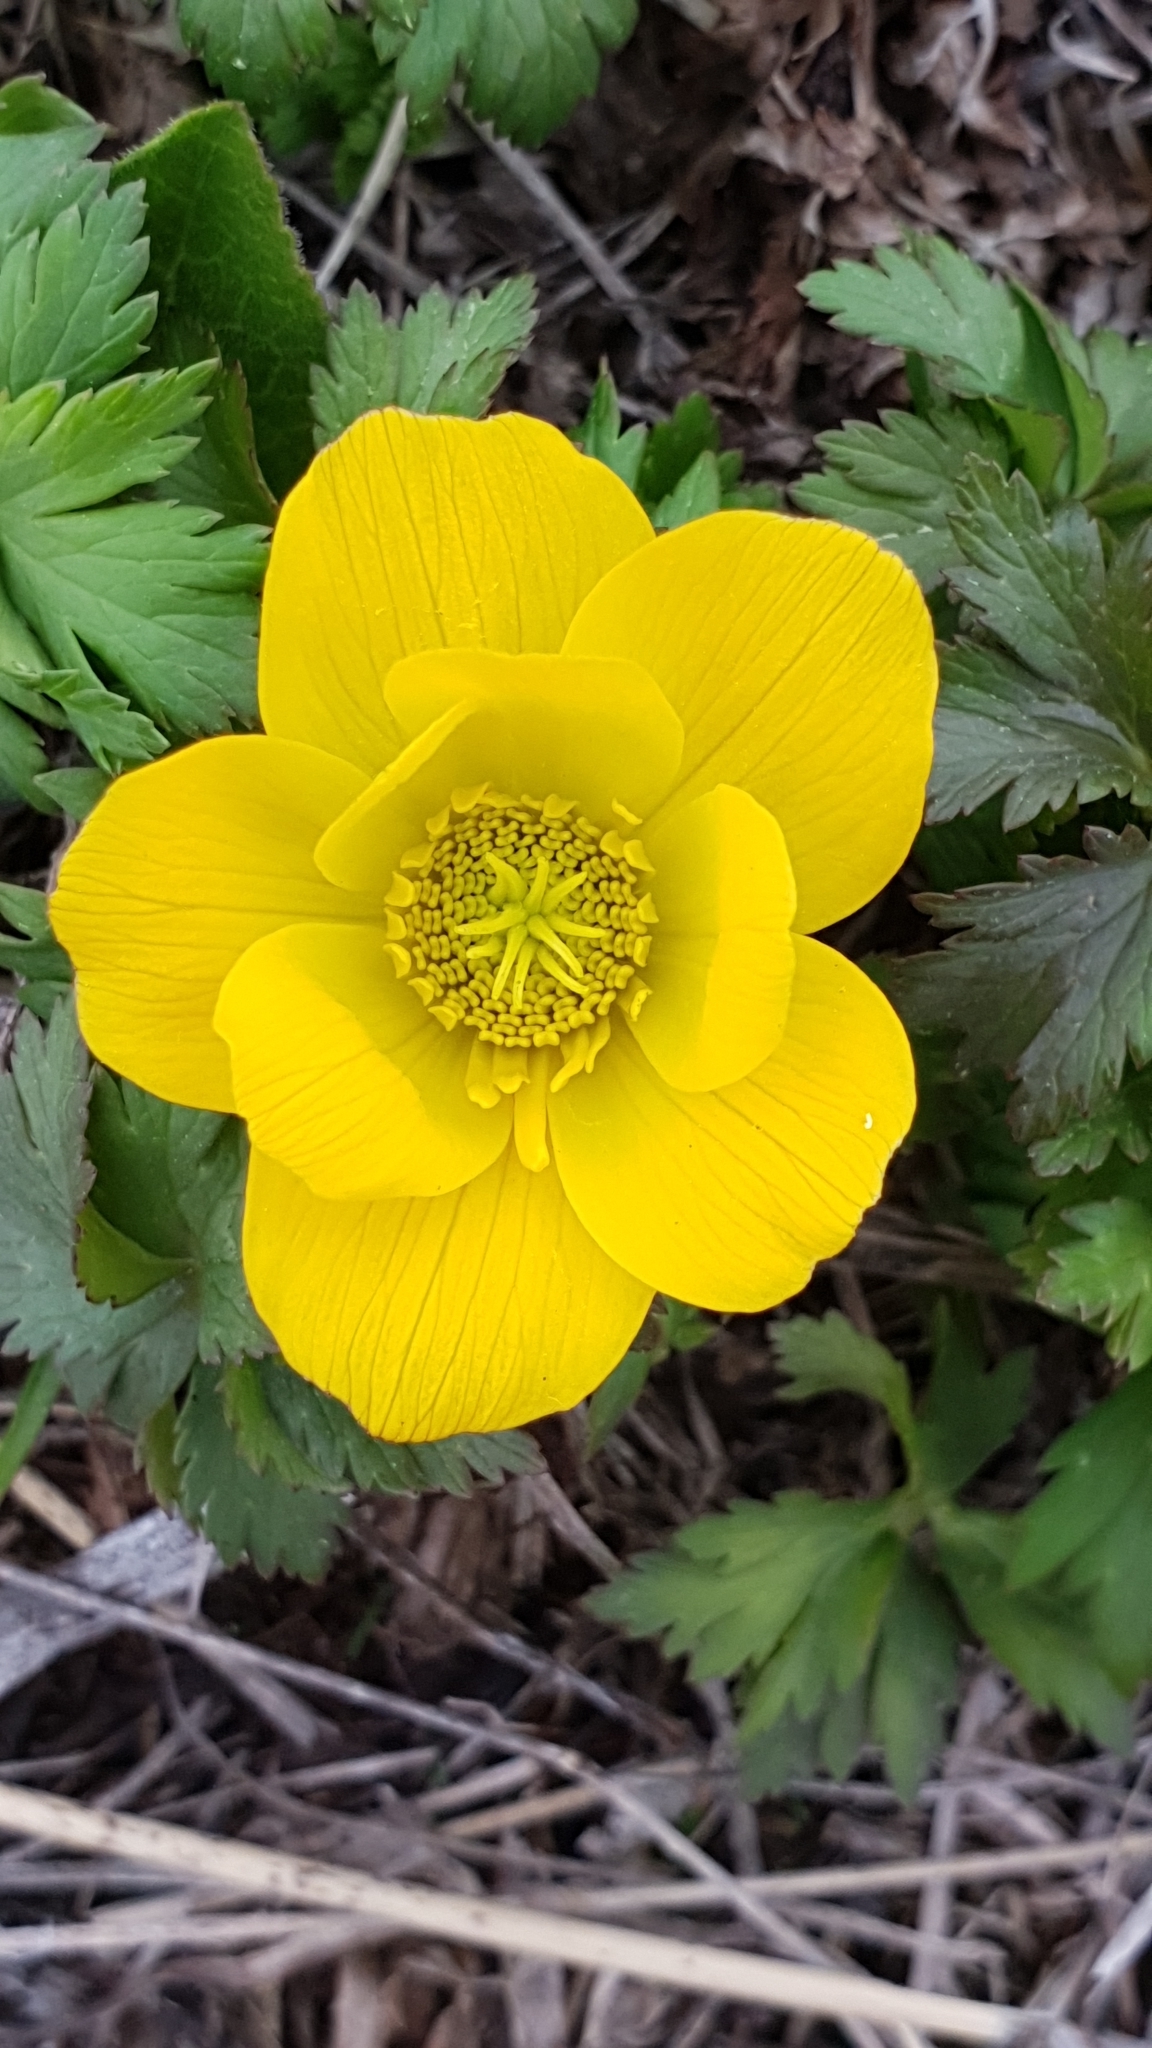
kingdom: Plantae
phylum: Tracheophyta
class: Magnoliopsida
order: Ranunculales
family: Ranunculaceae
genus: Trollius
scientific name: Trollius ranunculinus
